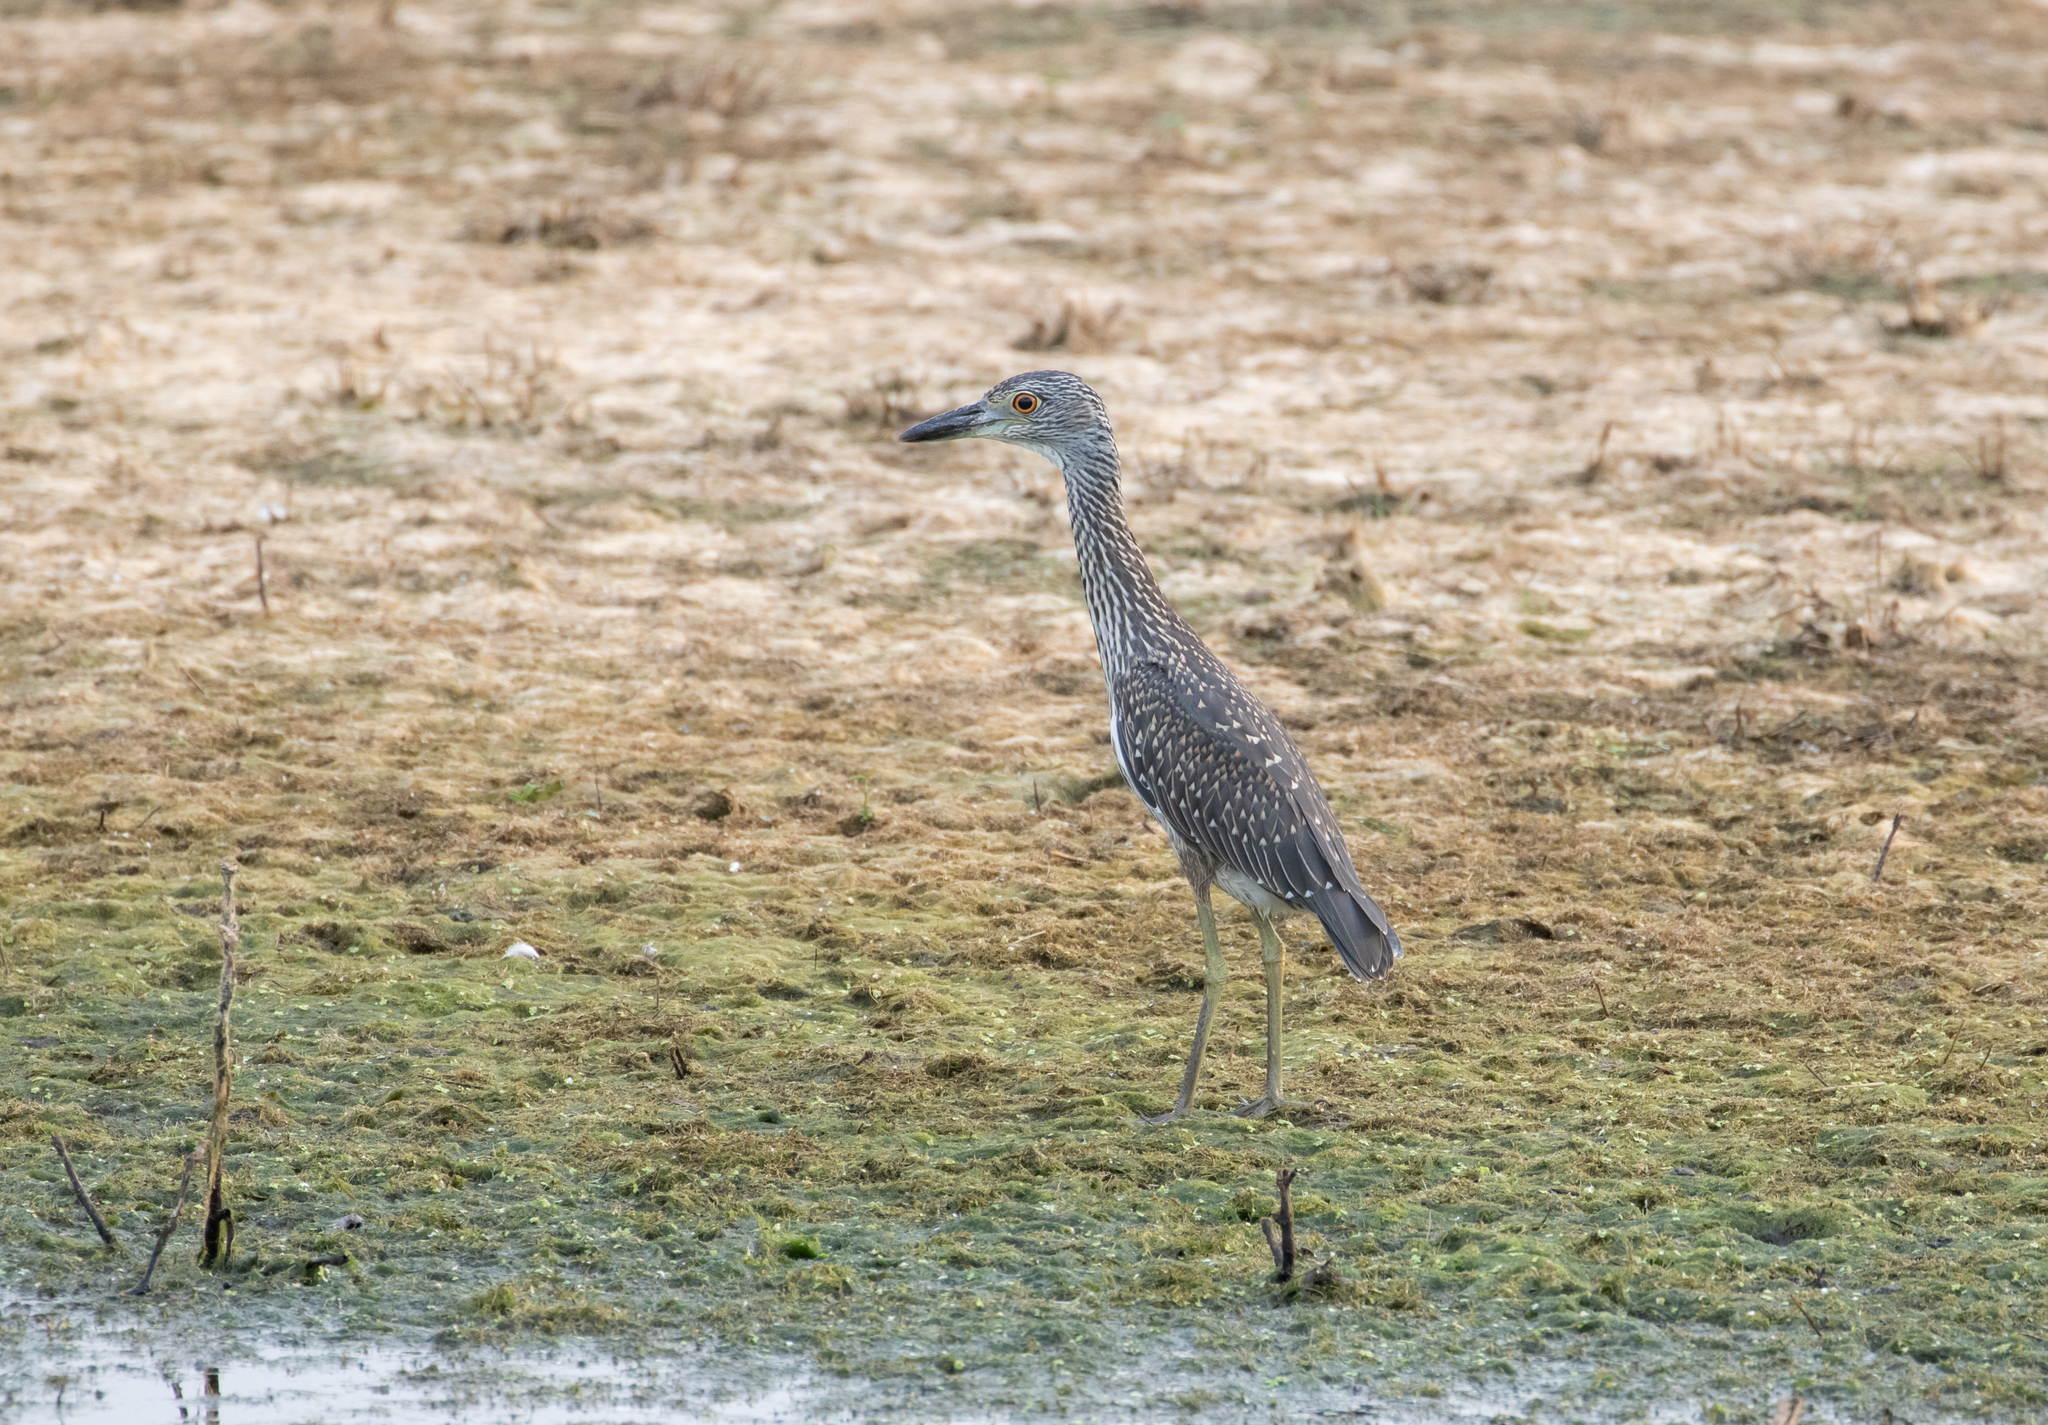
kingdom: Animalia
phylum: Chordata
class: Aves
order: Pelecaniformes
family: Ardeidae
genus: Nyctanassa
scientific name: Nyctanassa violacea
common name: Yellow-crowned night heron
